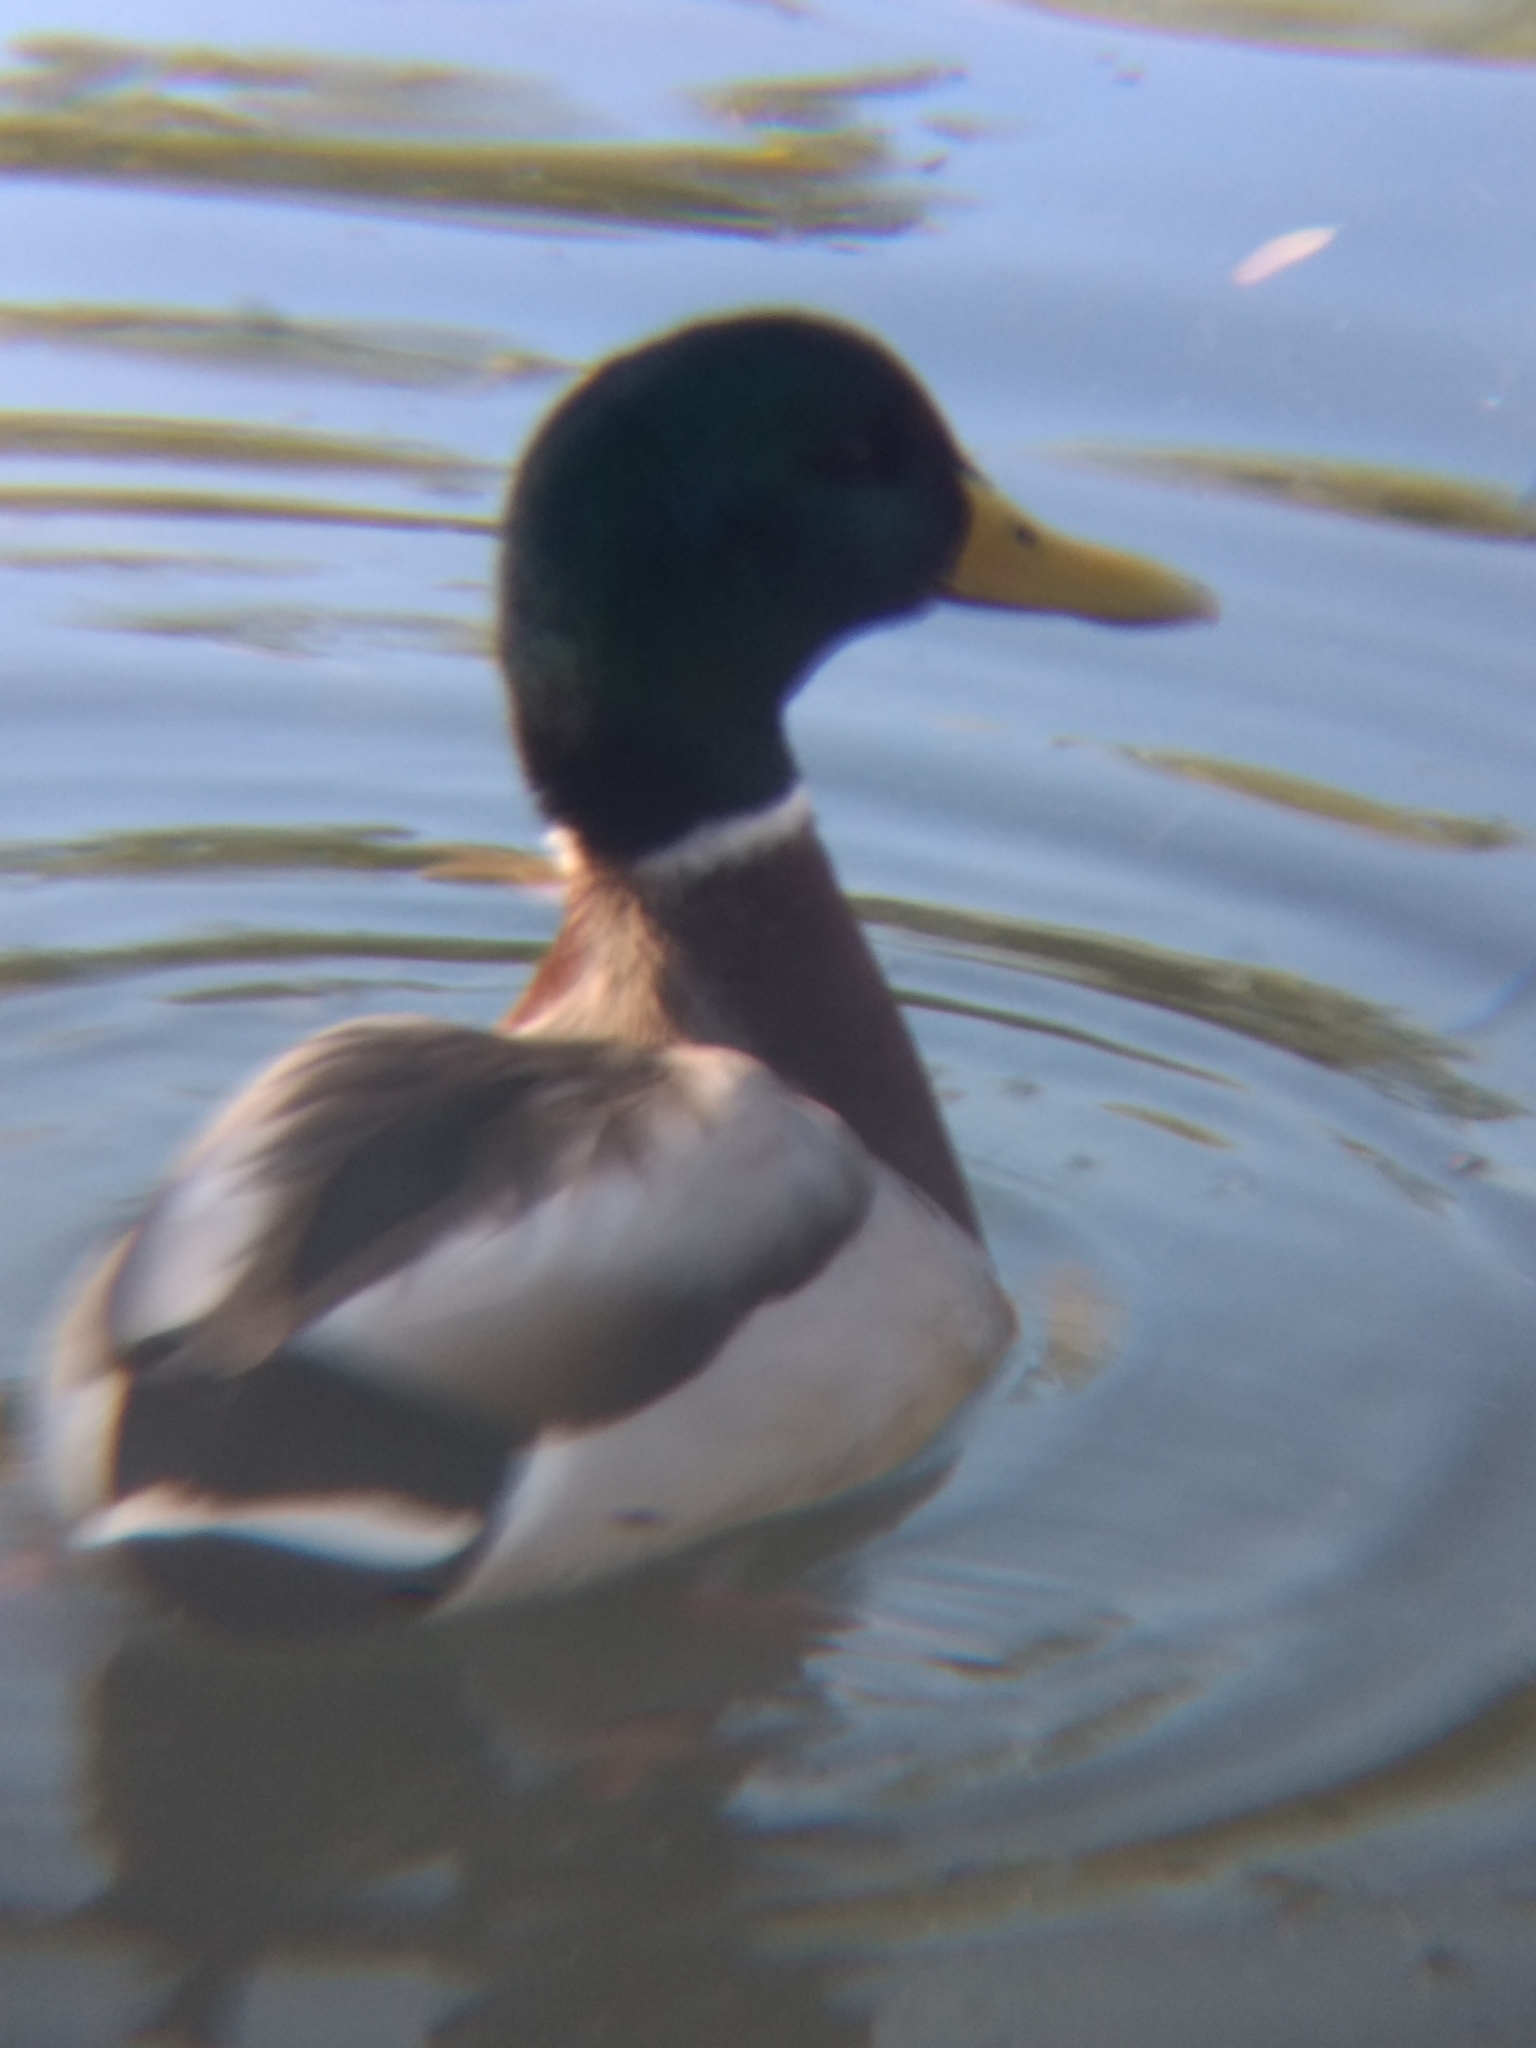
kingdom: Animalia
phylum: Chordata
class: Aves
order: Anseriformes
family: Anatidae
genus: Anas
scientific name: Anas platyrhynchos
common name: Mallard
